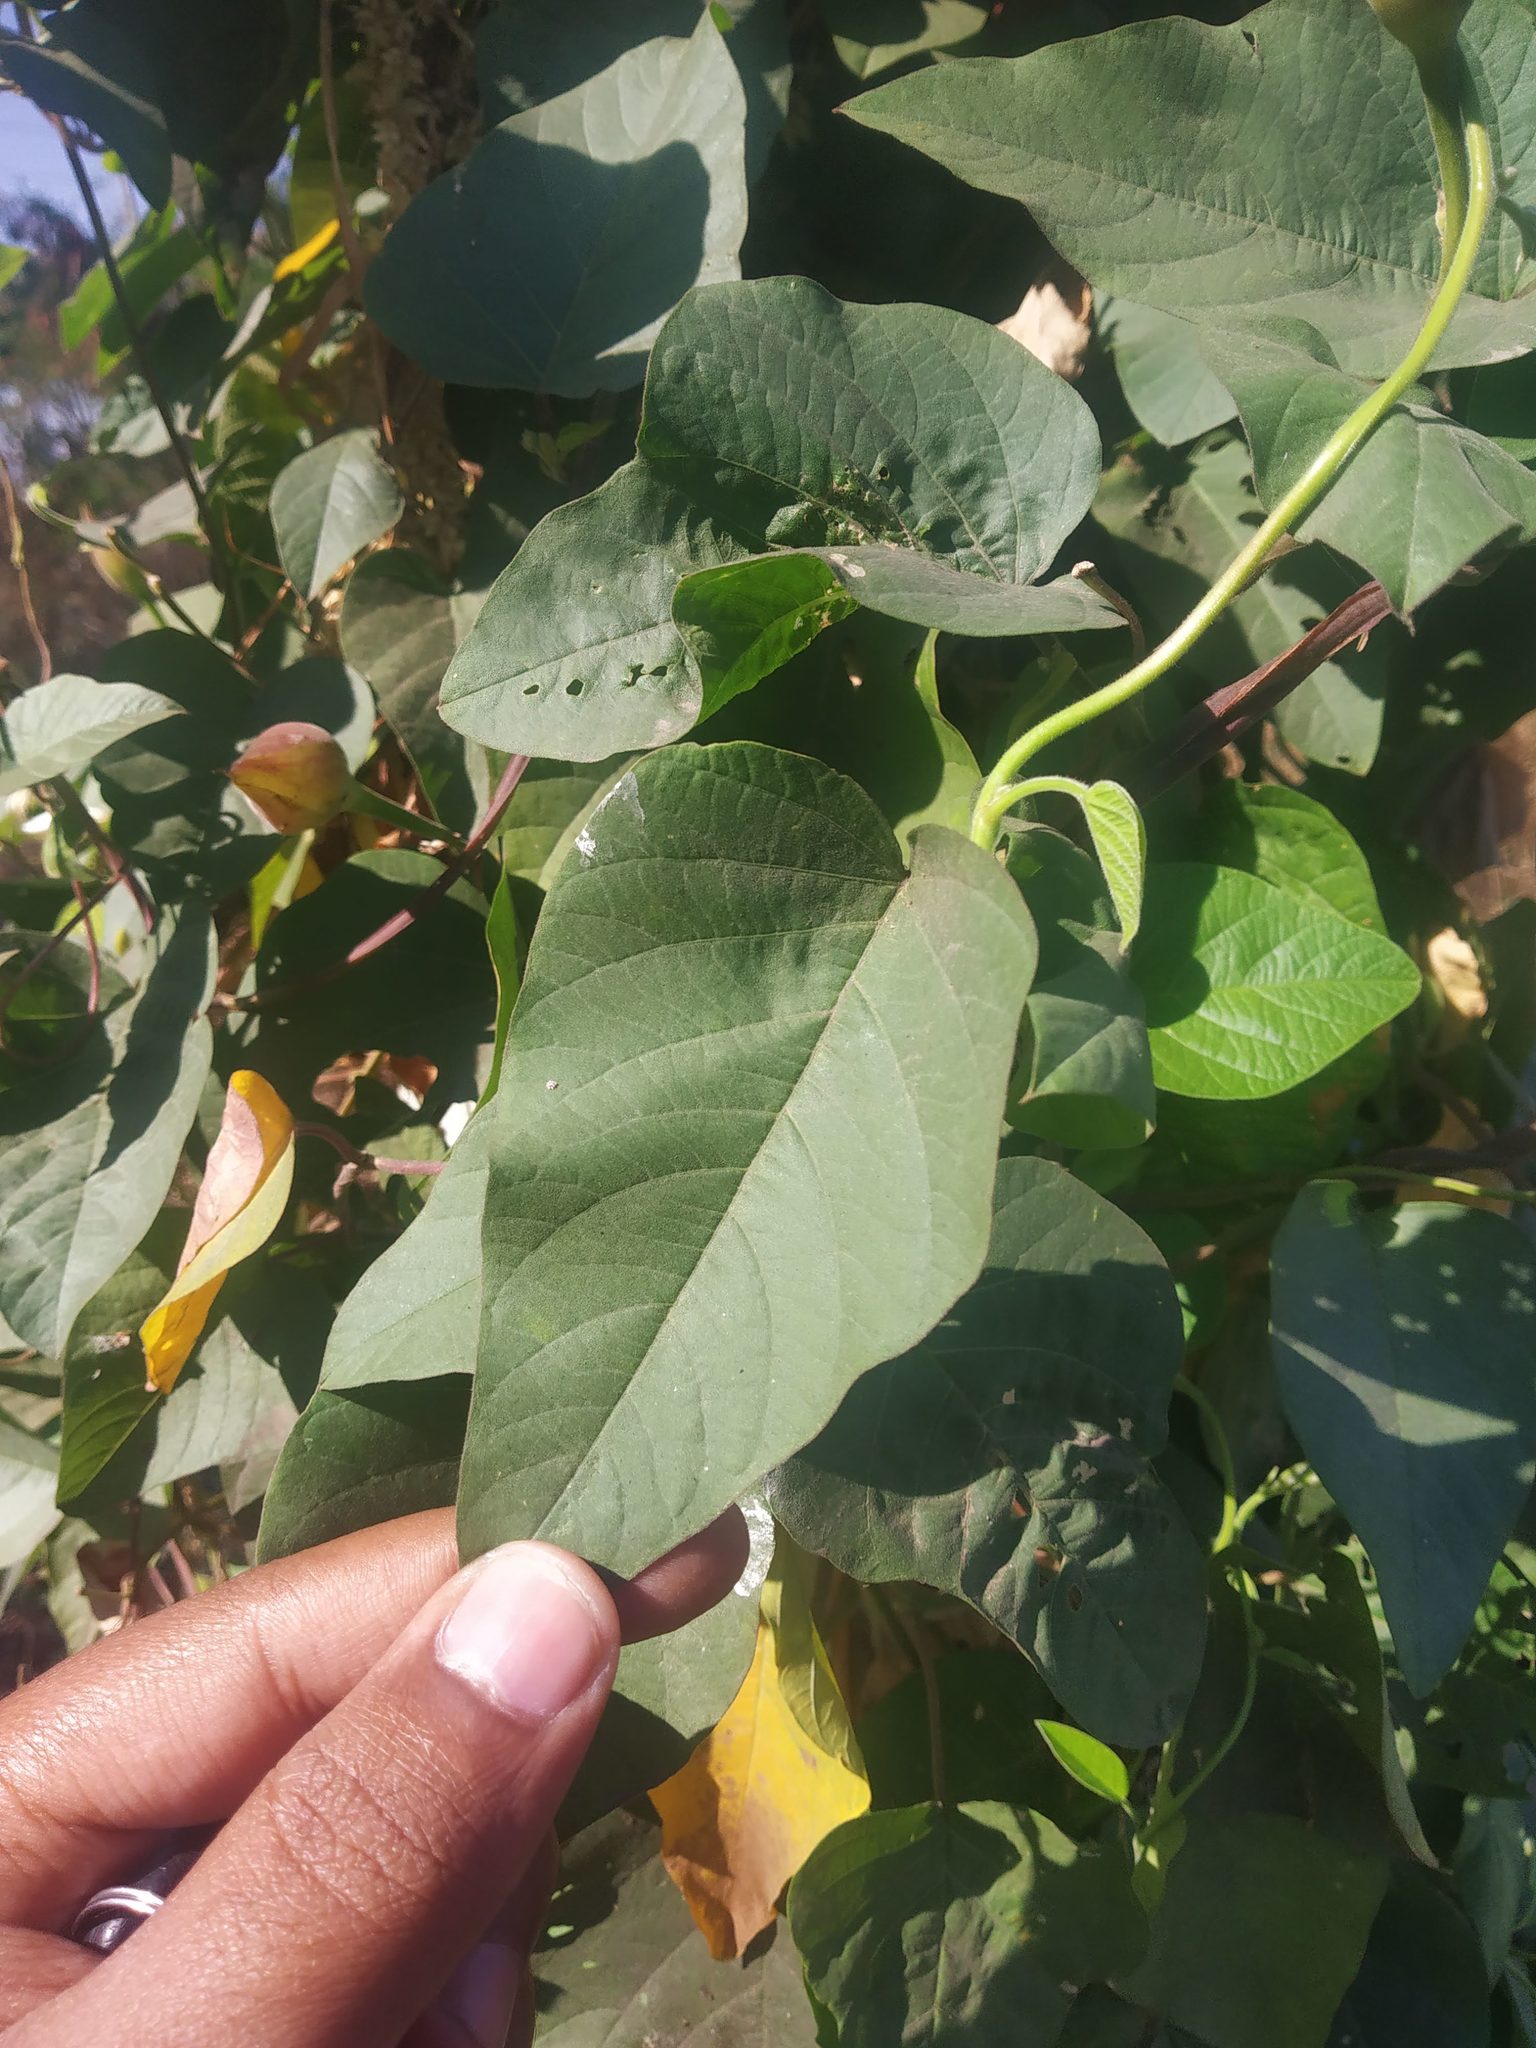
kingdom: Plantae
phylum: Tracheophyta
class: Magnoliopsida
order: Solanales
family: Convolvulaceae
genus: Operculina
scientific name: Operculina turpethum
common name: Transparent wood-rose
